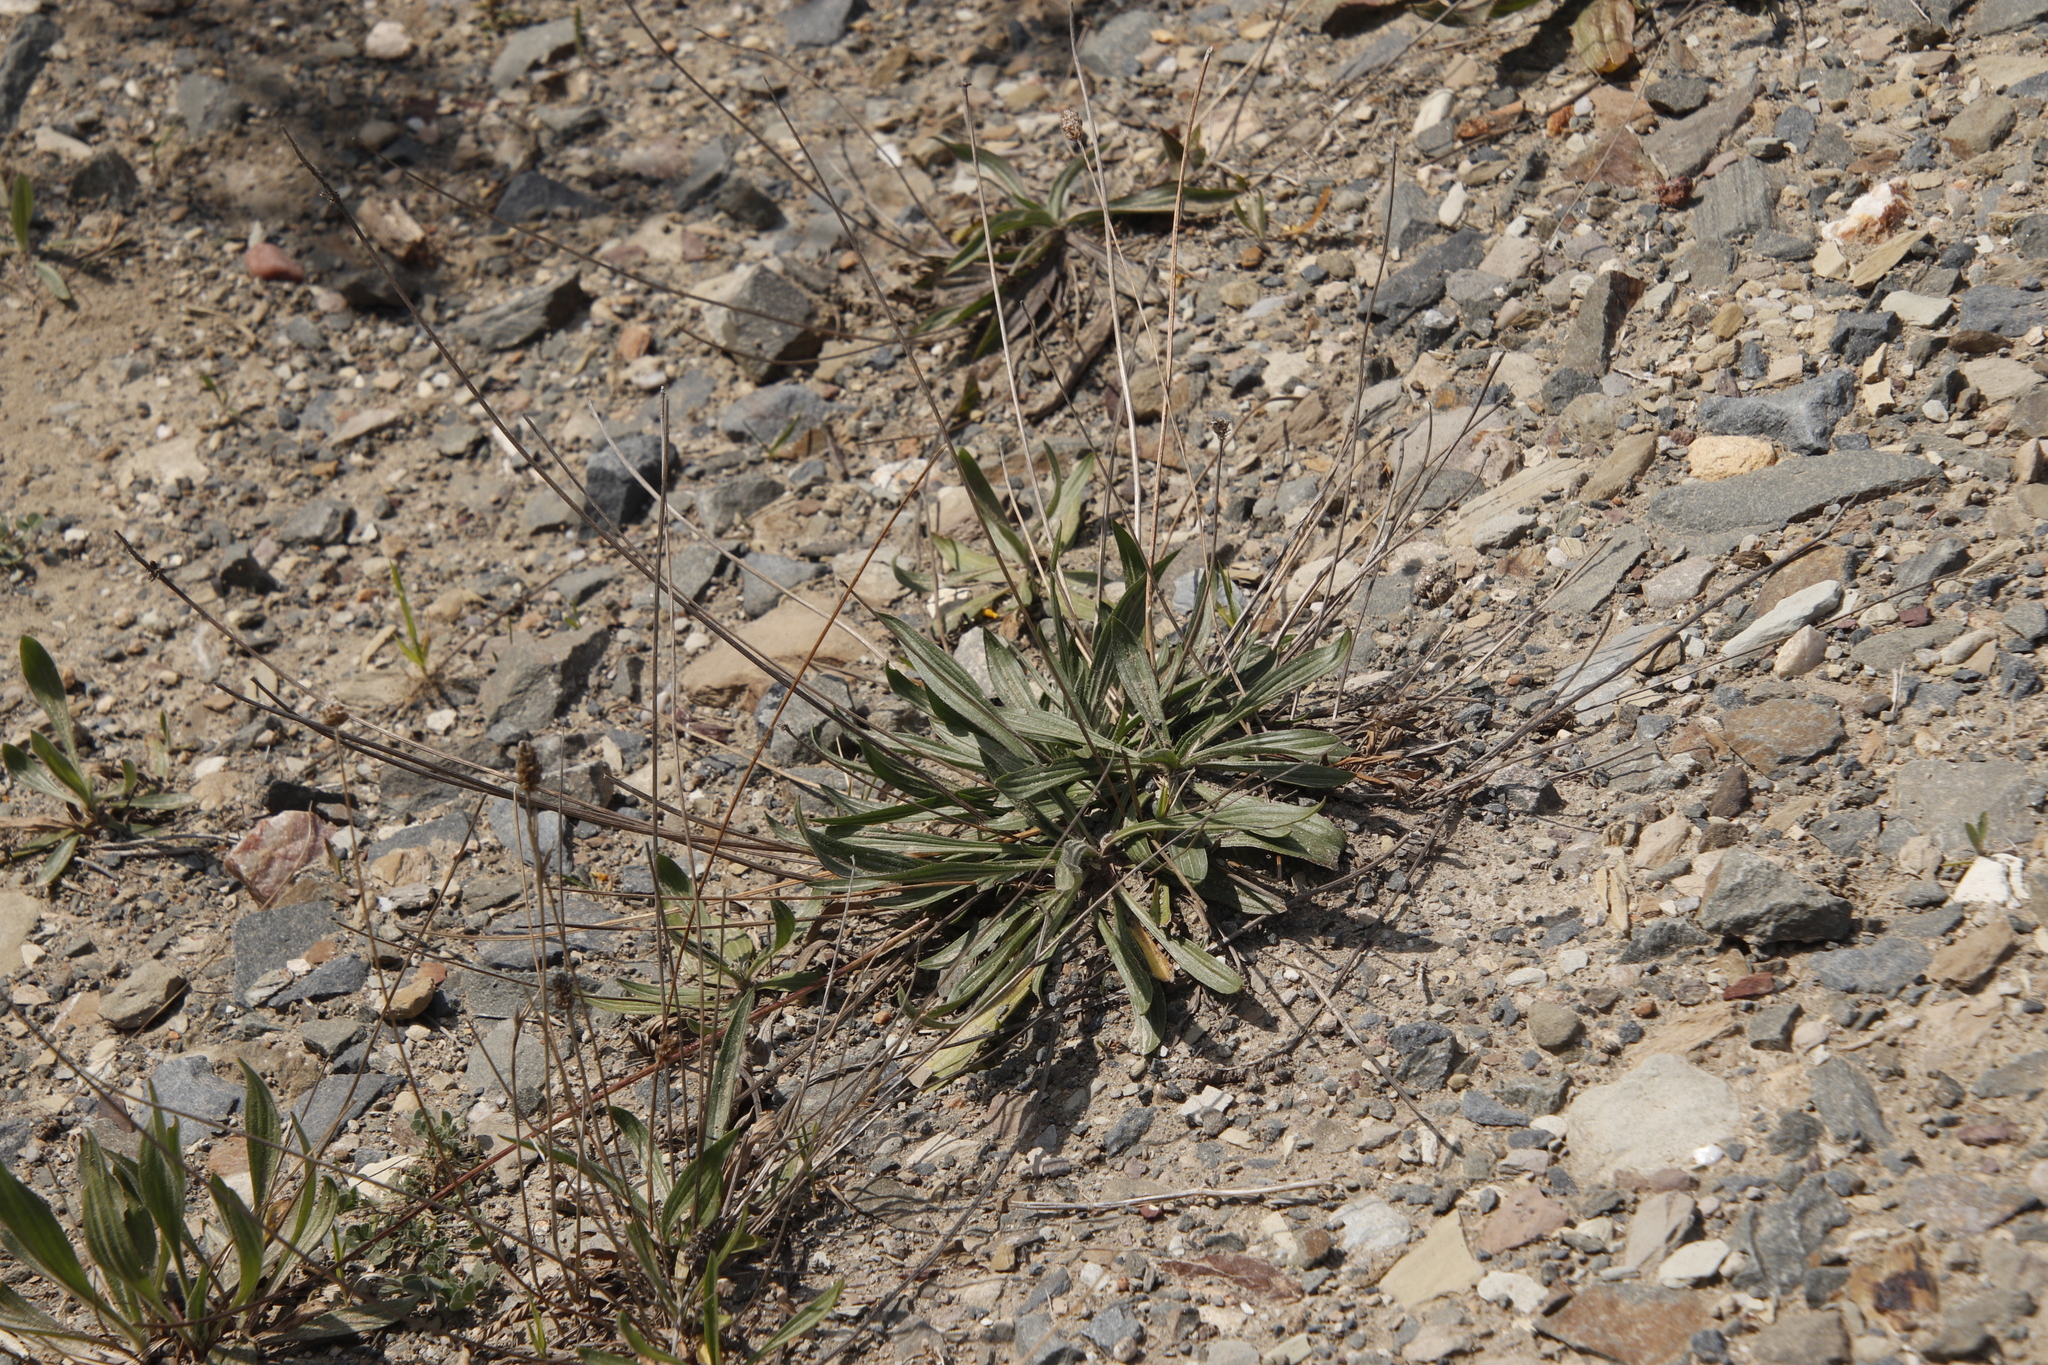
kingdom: Plantae
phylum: Tracheophyta
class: Magnoliopsida
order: Lamiales
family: Plantaginaceae
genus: Plantago
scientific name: Plantago lanceolata
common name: Ribwort plantain
